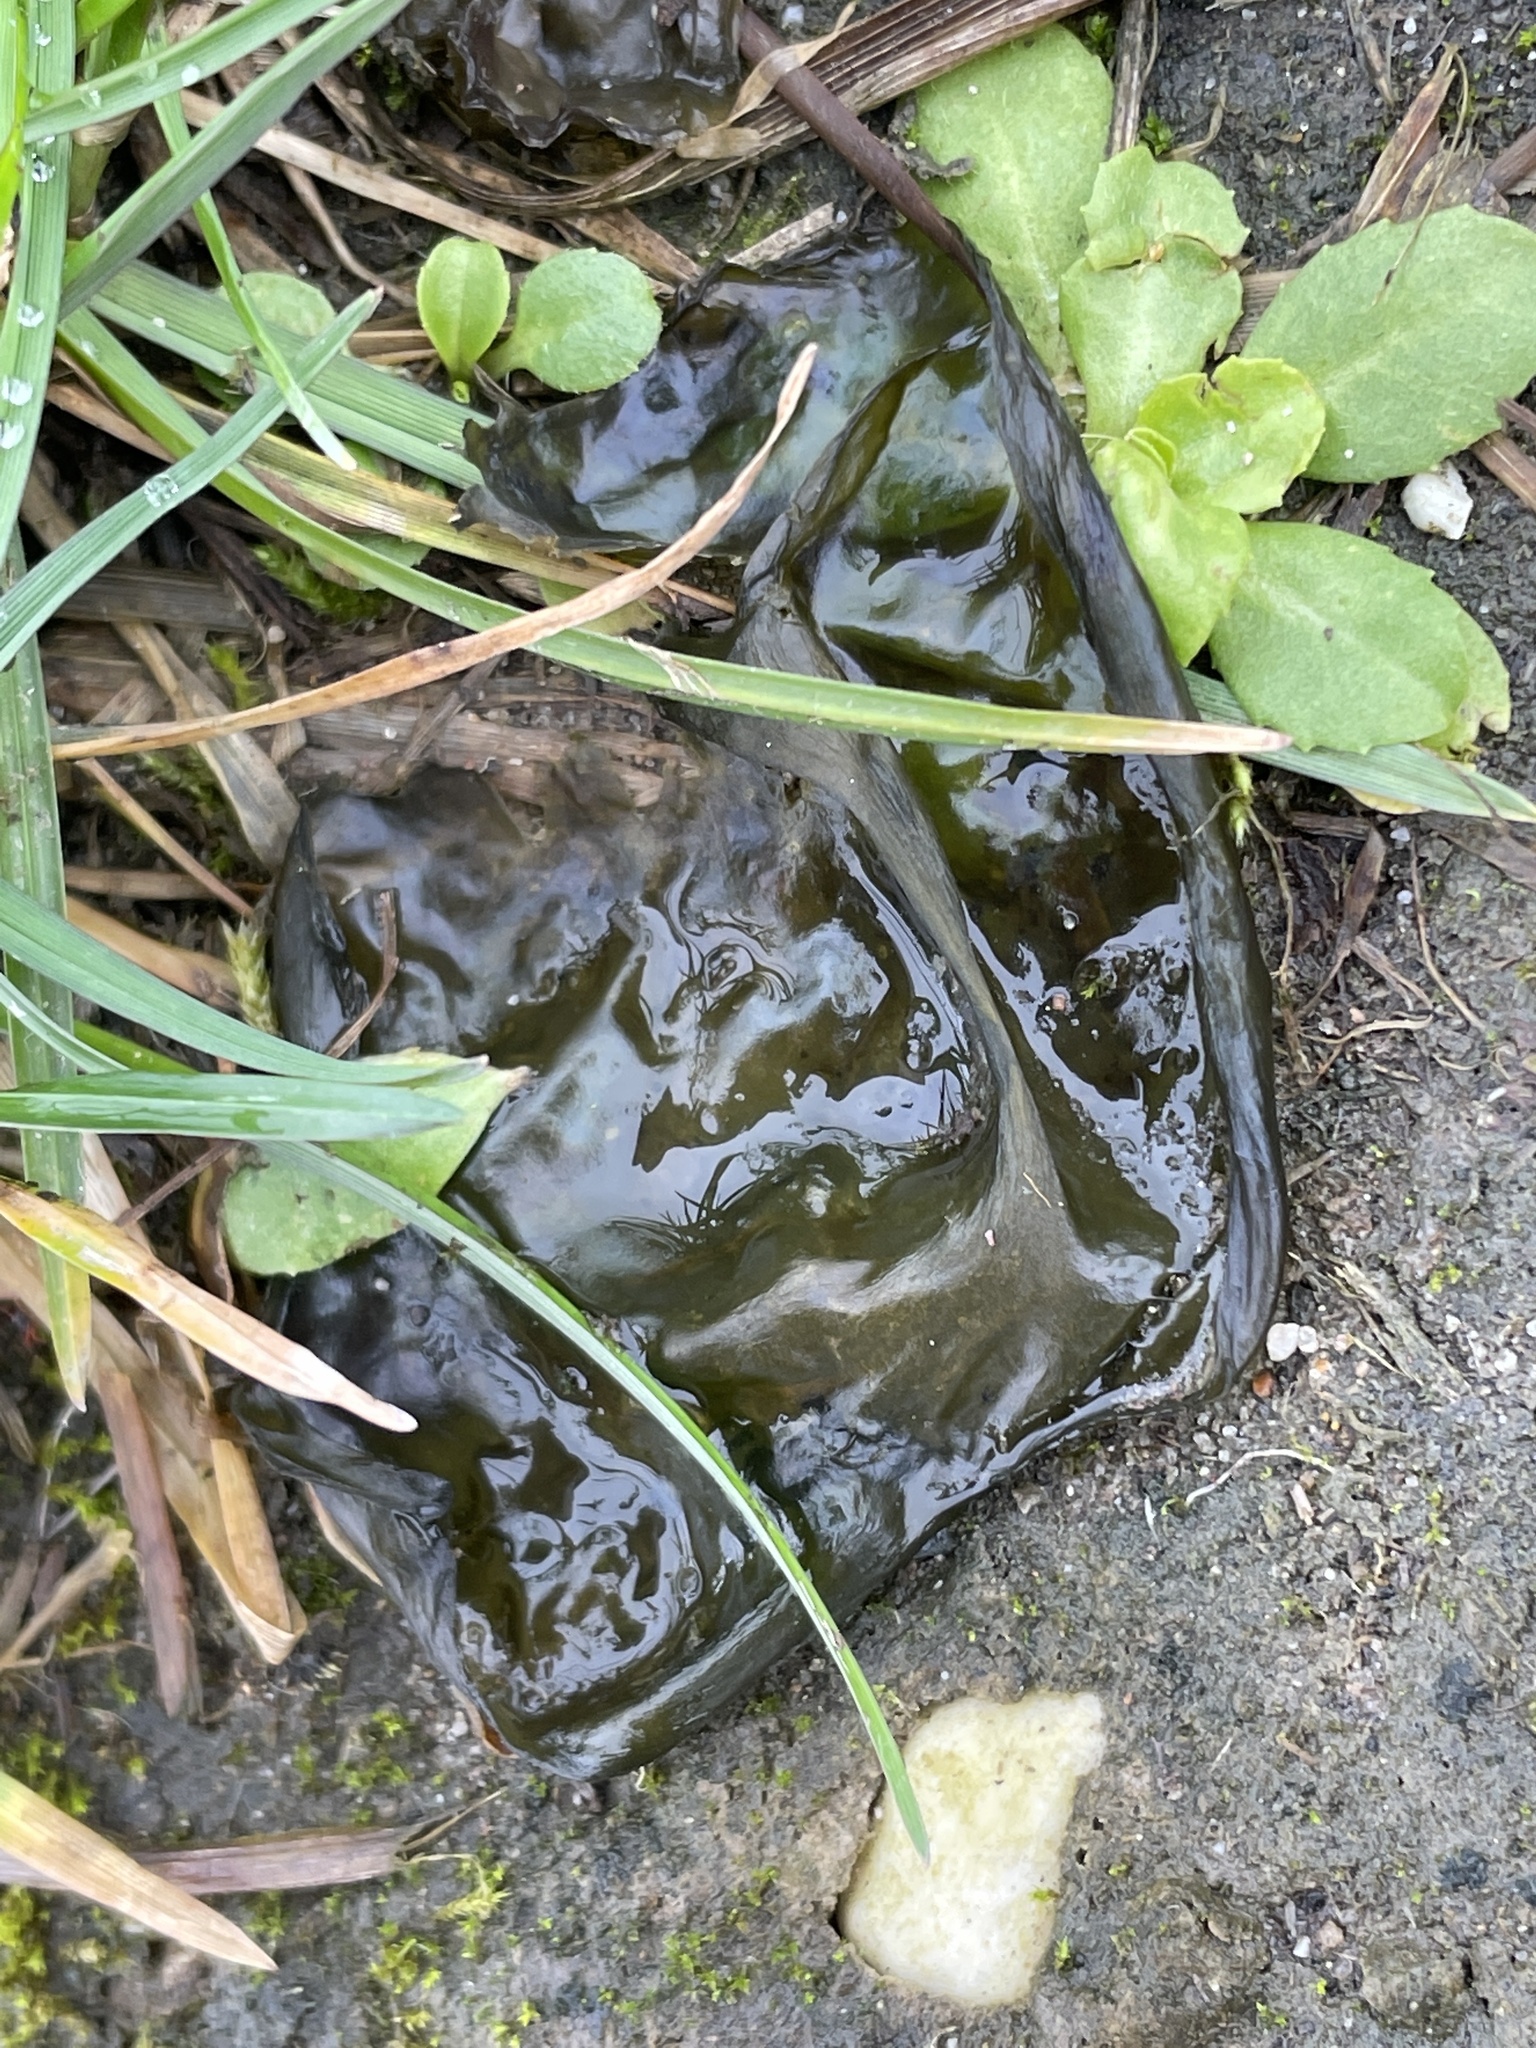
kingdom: Bacteria
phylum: Cyanobacteria
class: Cyanobacteriia
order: Cyanobacteriales
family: Nostocaceae
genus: Nostoc
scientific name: Nostoc commune
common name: Star jelly
